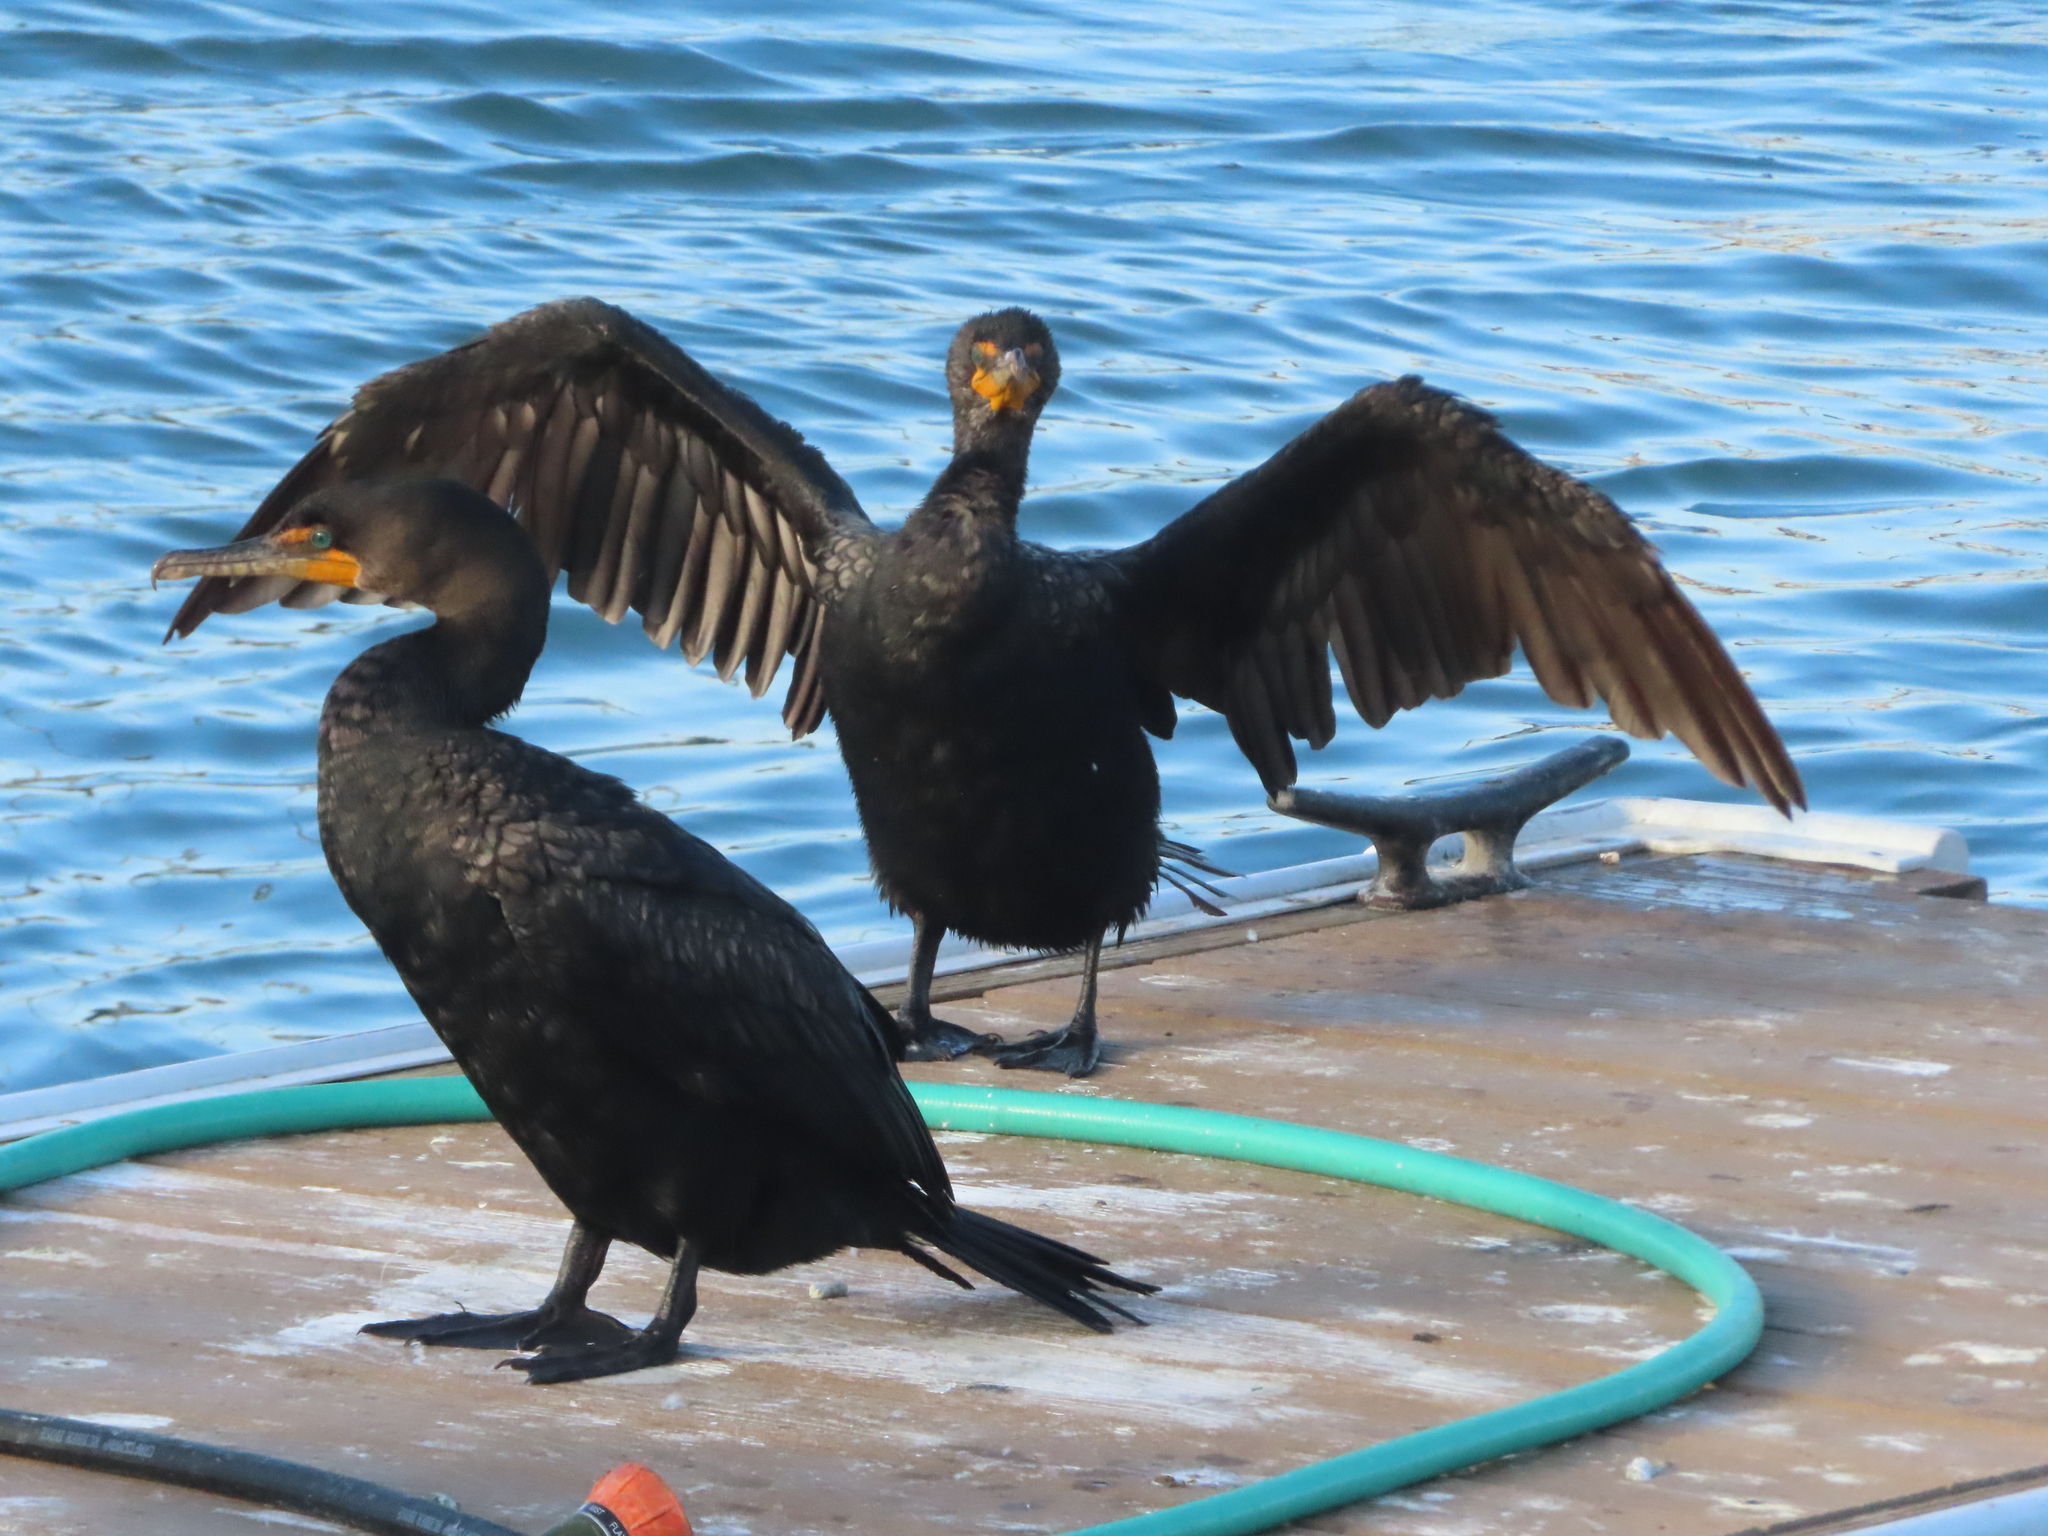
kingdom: Animalia
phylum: Chordata
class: Aves
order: Suliformes
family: Phalacrocoracidae
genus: Phalacrocorax
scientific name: Phalacrocorax auritus
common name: Double-crested cormorant
